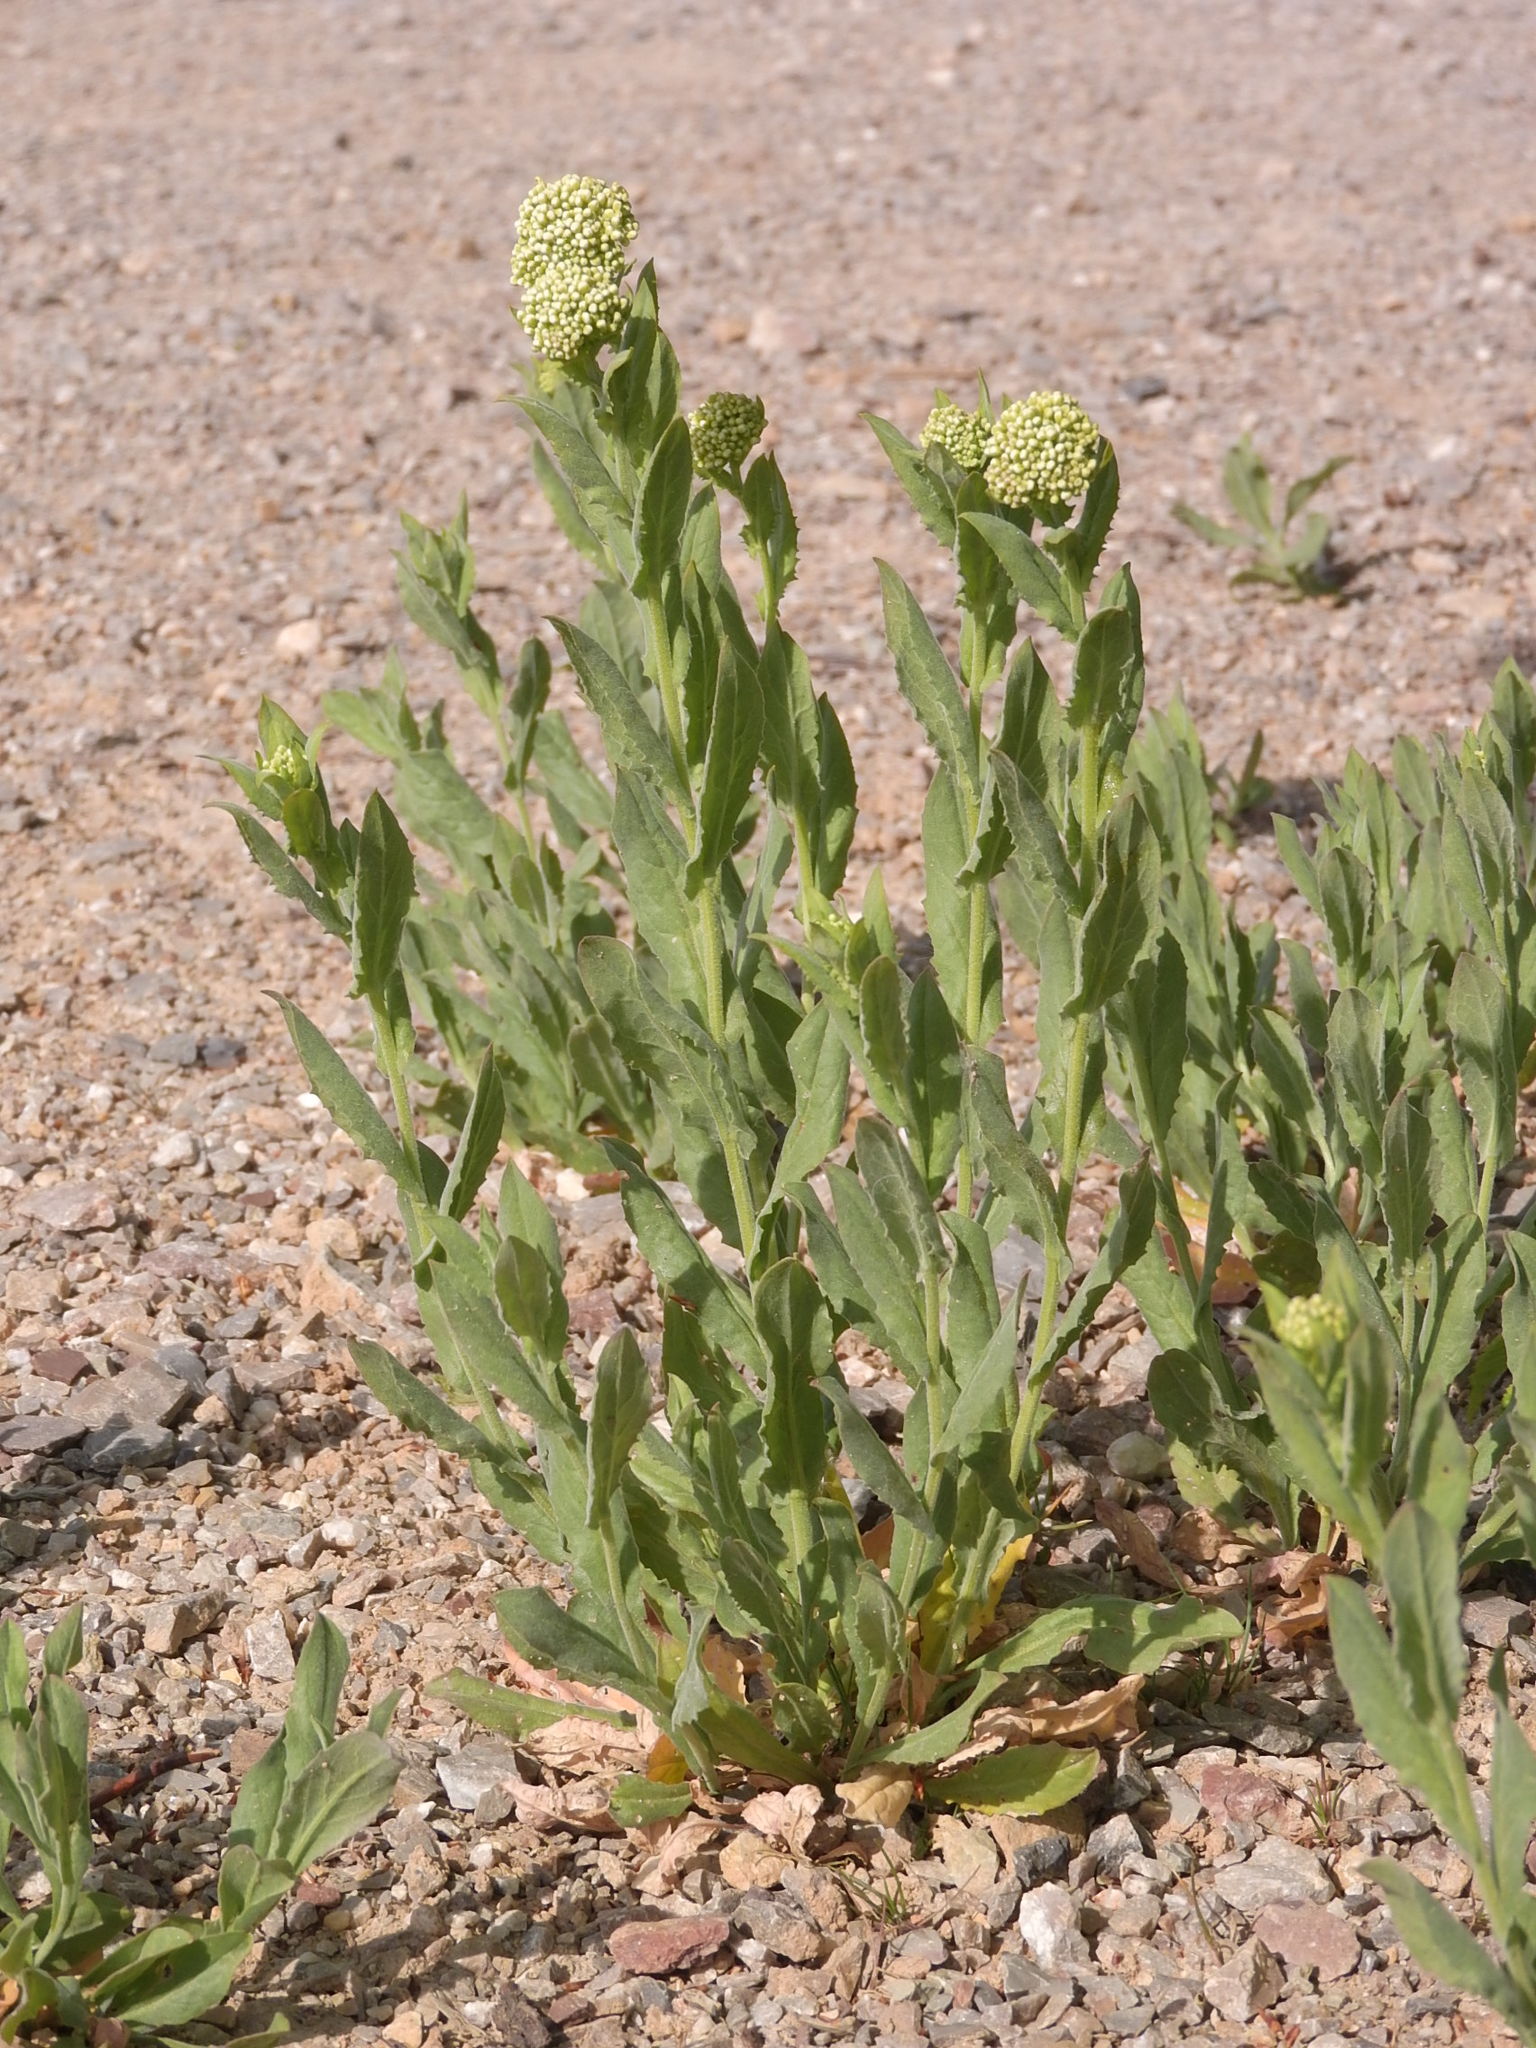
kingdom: Plantae
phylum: Tracheophyta
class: Magnoliopsida
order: Brassicales
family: Brassicaceae
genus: Lepidium
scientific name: Lepidium draba
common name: Hoary cress
